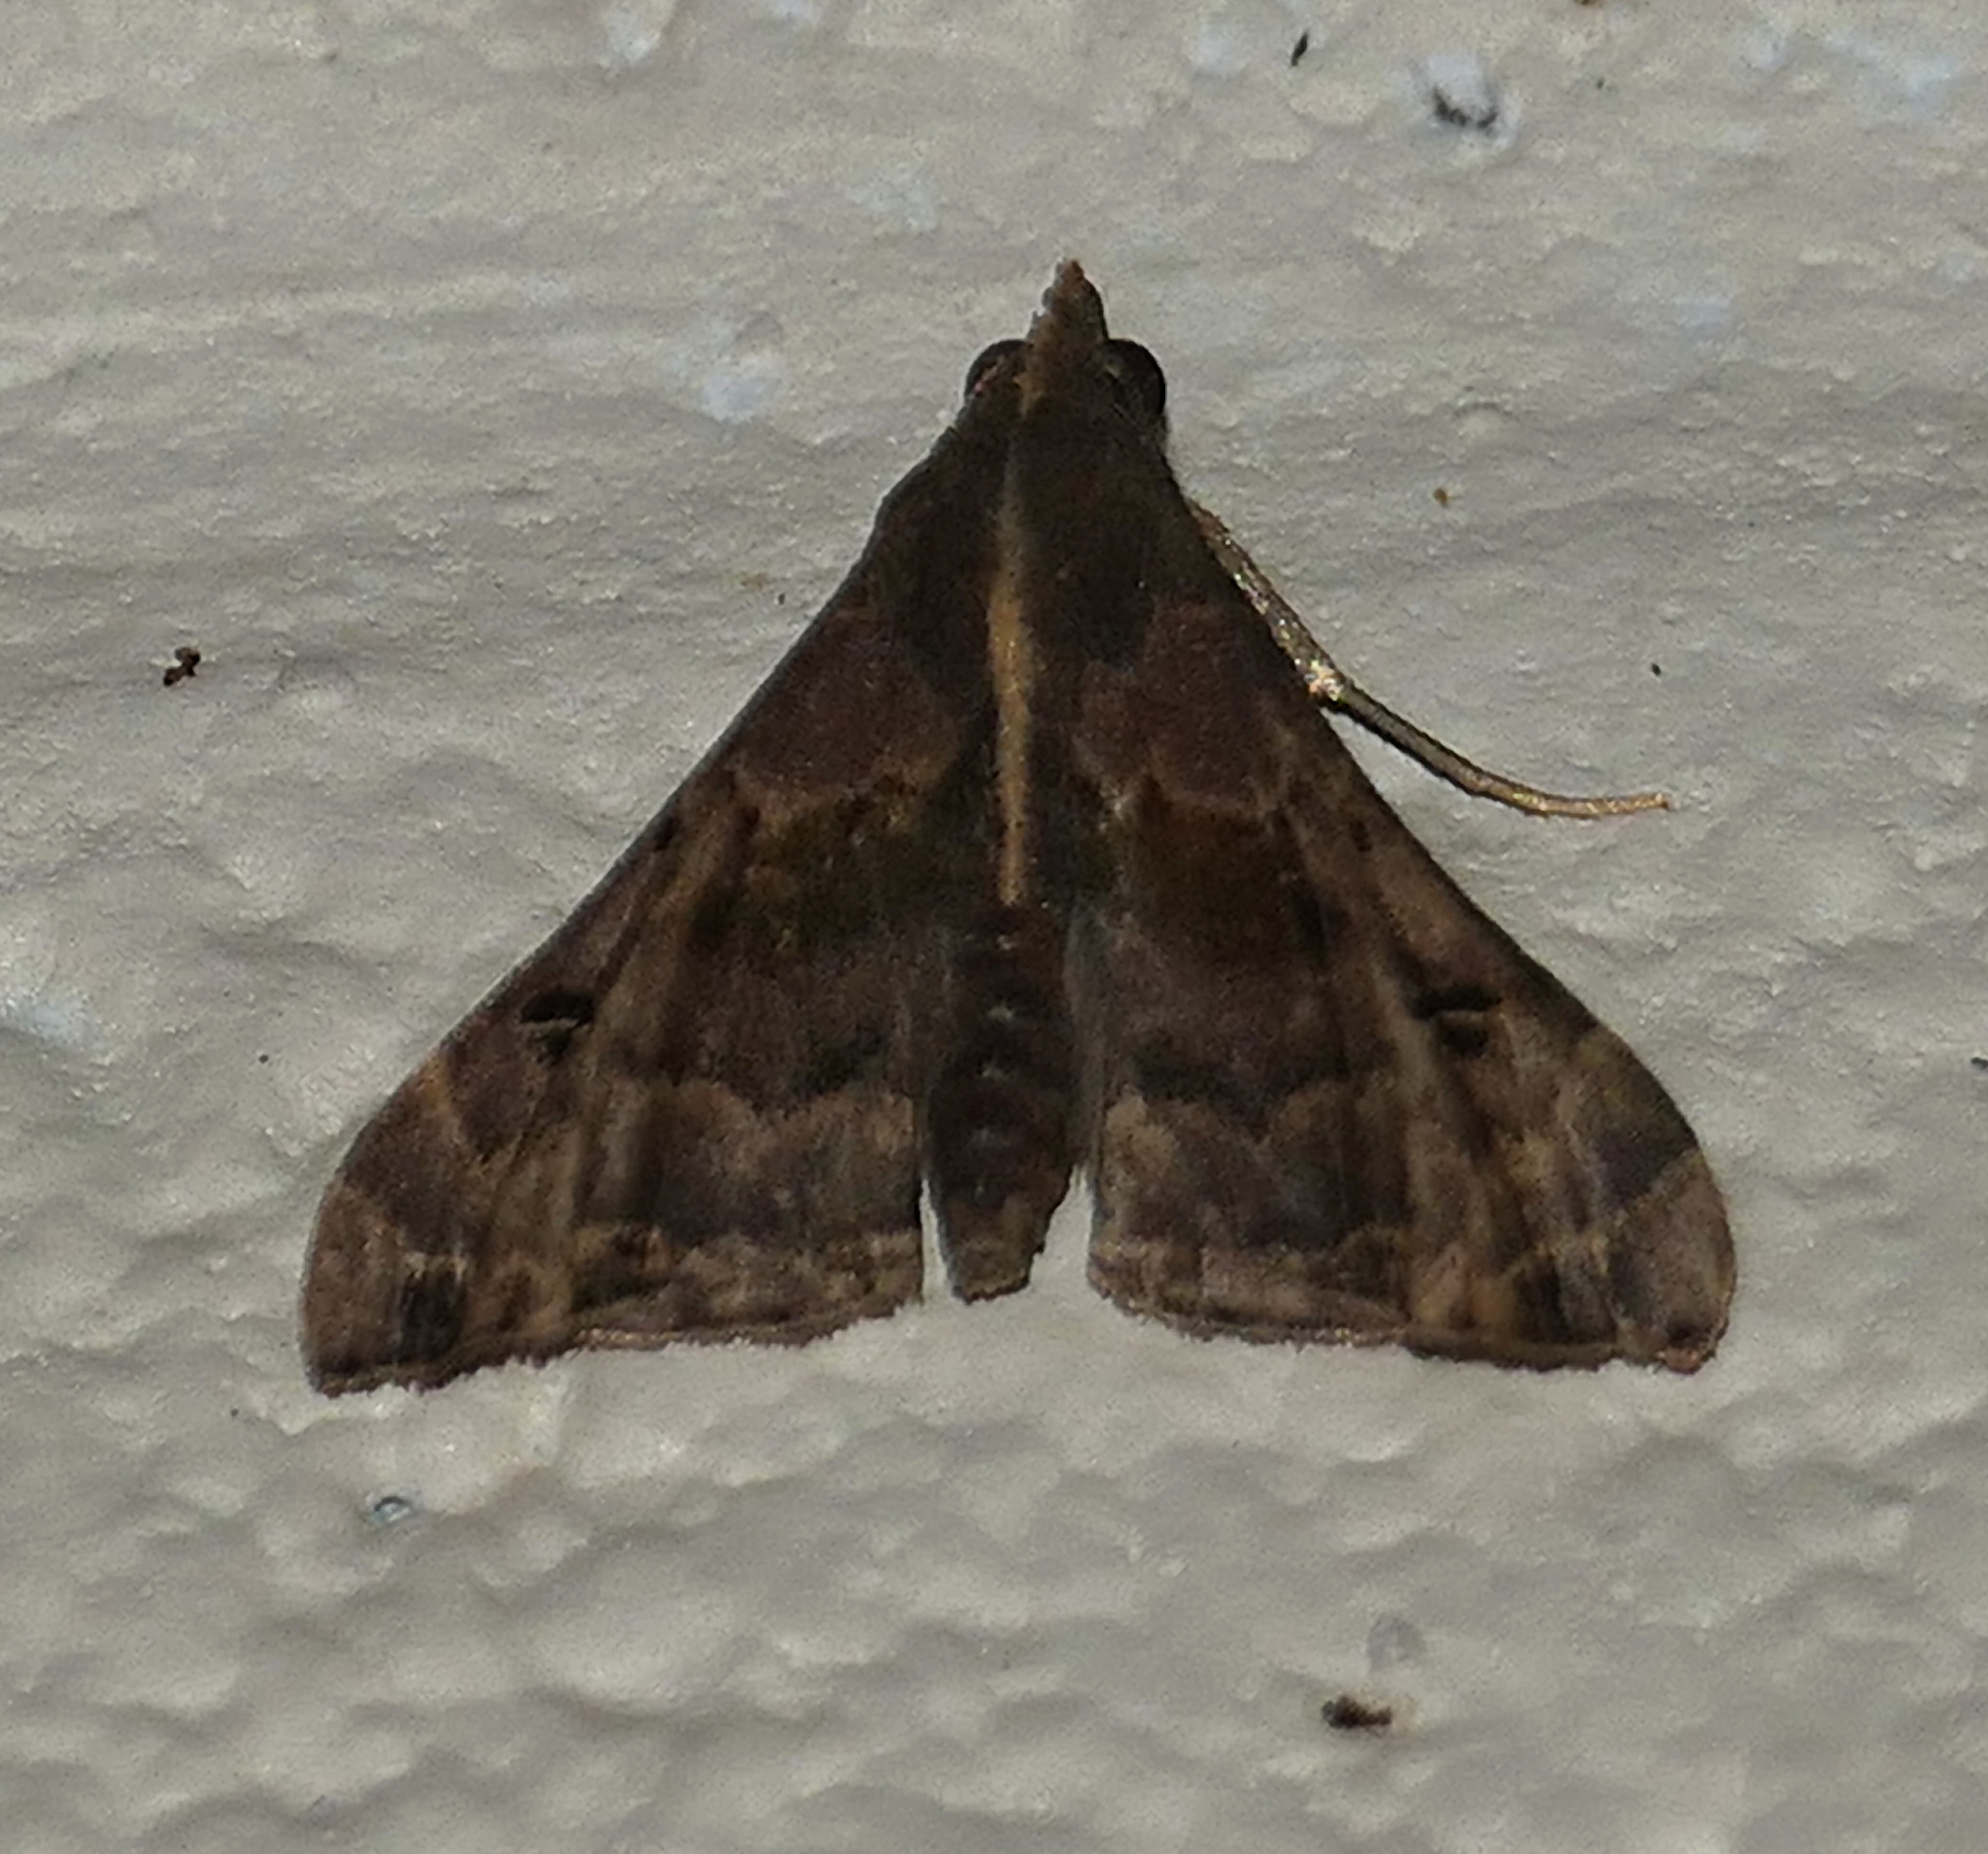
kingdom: Animalia
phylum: Arthropoda
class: Insecta
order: Lepidoptera
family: Erebidae
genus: Palthis
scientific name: Palthis asopialis
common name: Faint-spotted palthis moth
